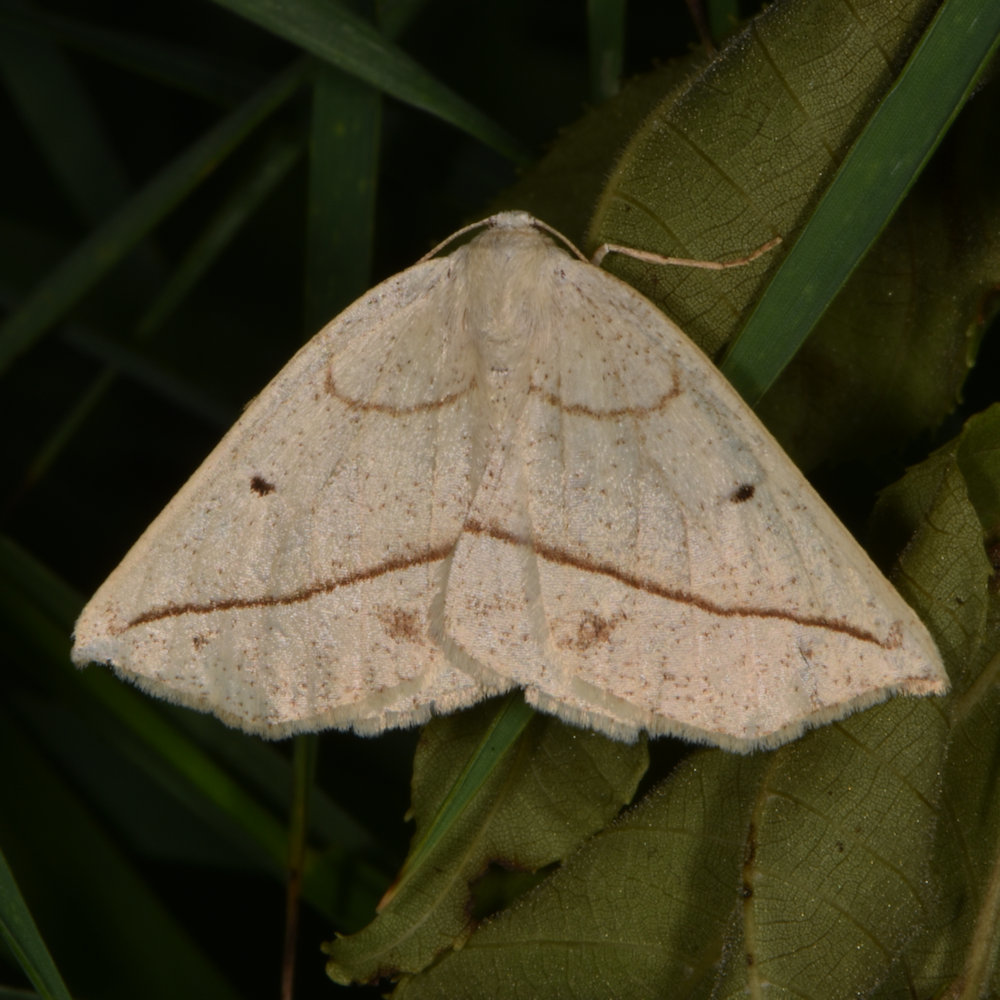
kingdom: Animalia
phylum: Arthropoda
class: Insecta
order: Lepidoptera
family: Geometridae
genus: Eusarca
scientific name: Eusarca confusaria
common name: Confused eusarca
